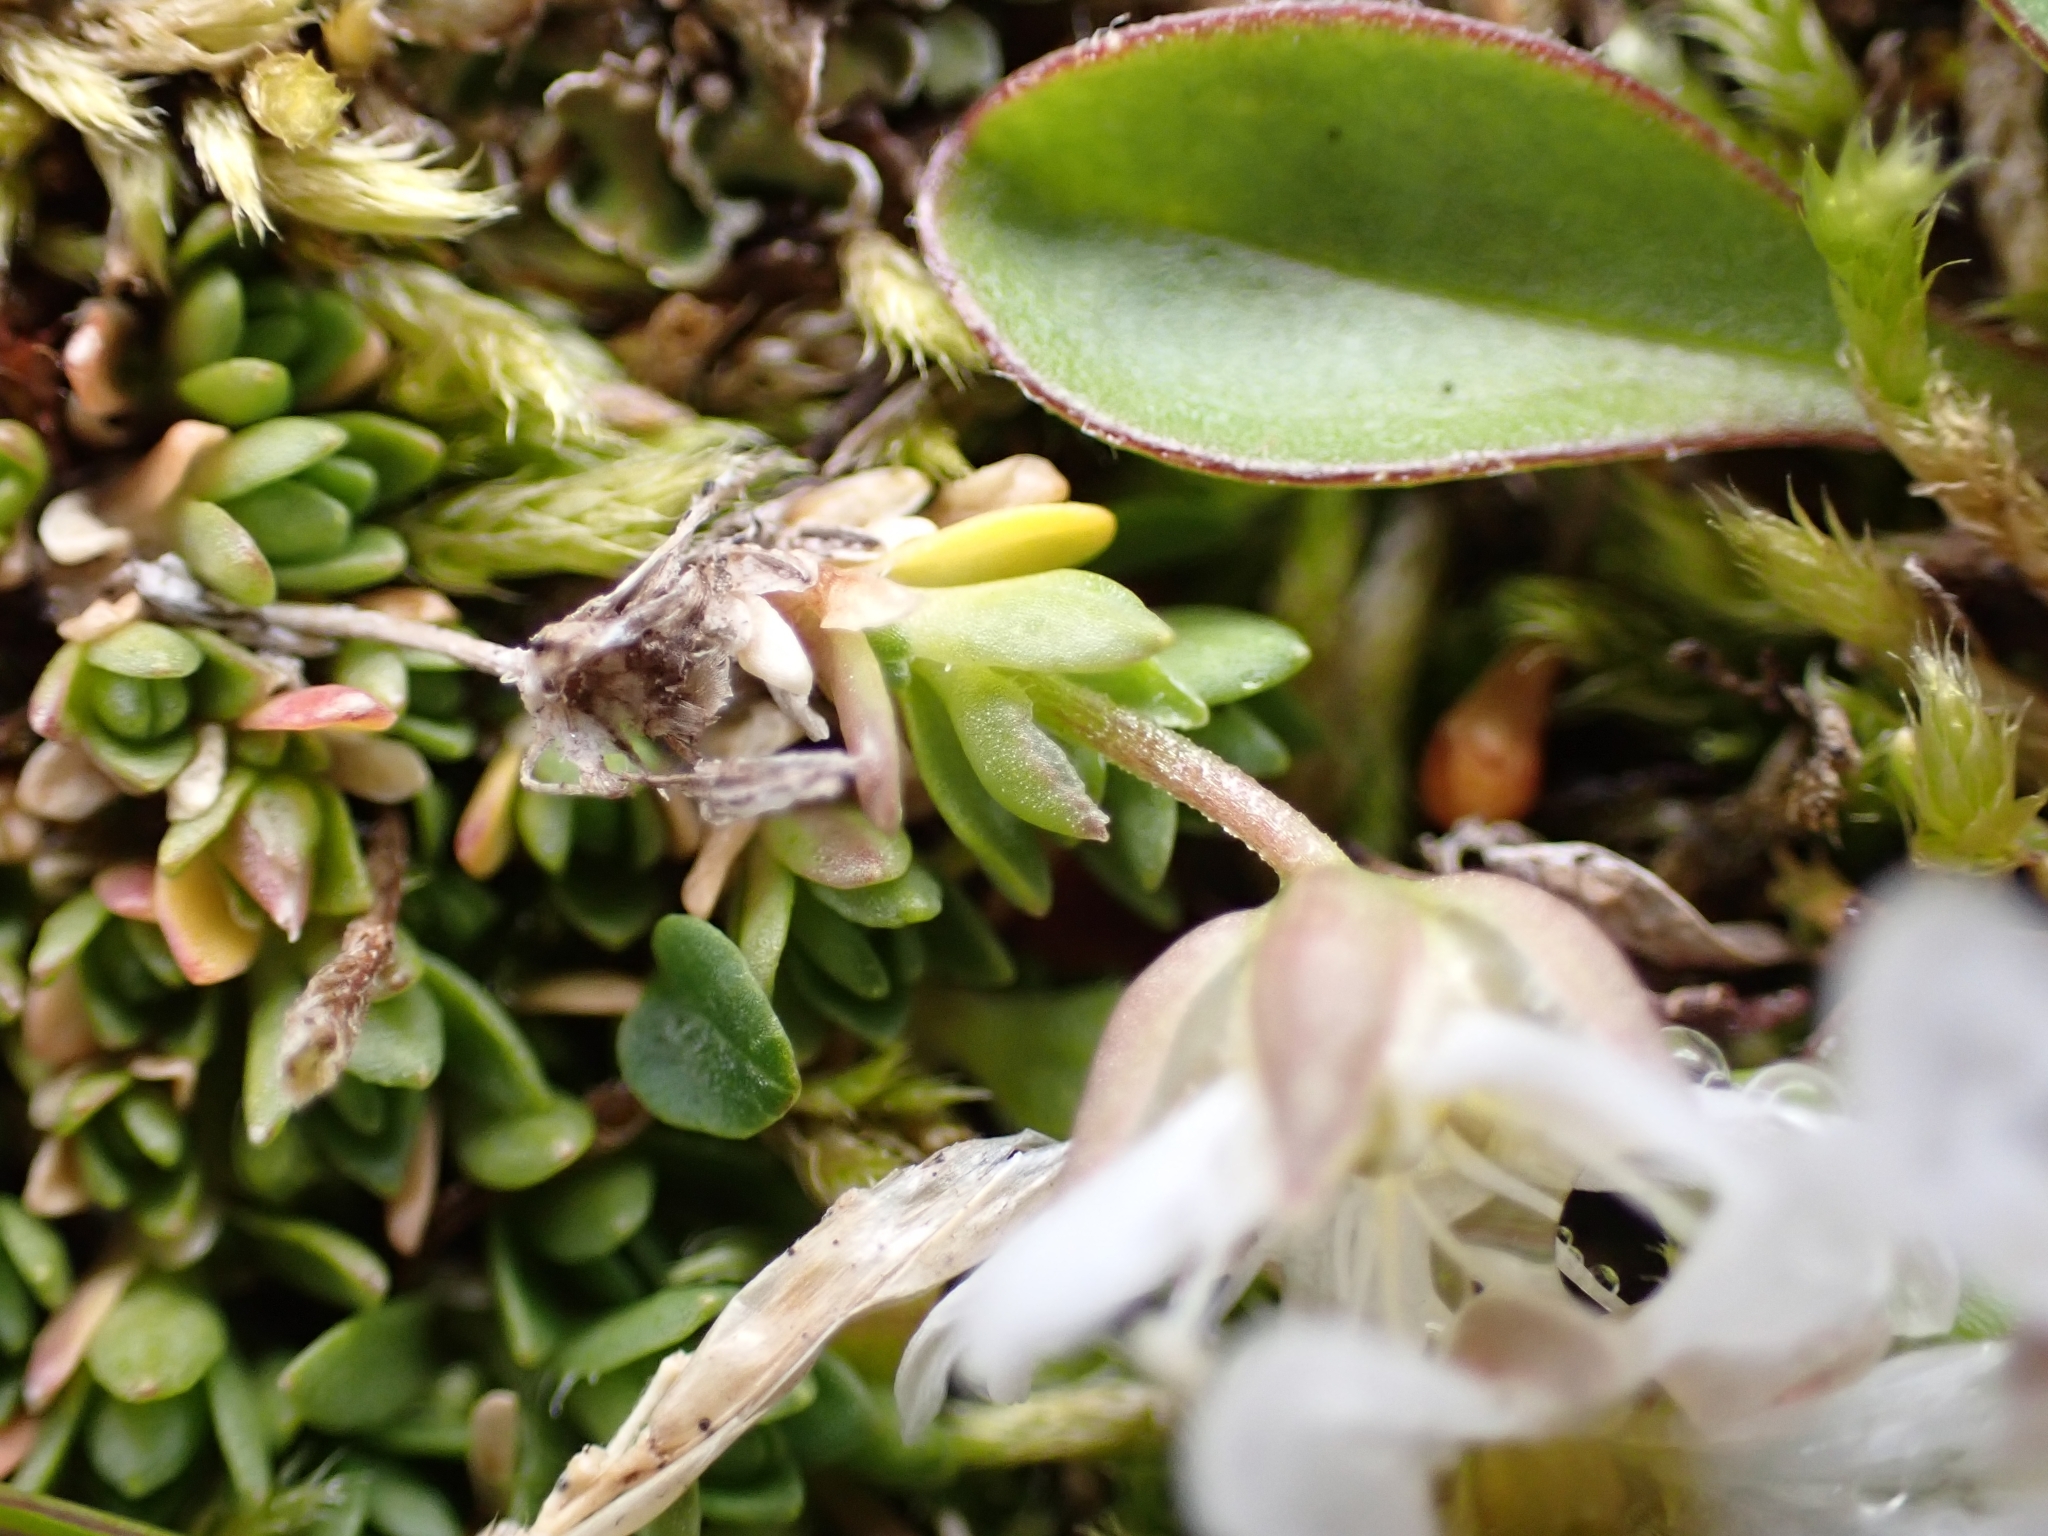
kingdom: Plantae
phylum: Tracheophyta
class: Magnoliopsida
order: Caryophyllales
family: Caryophyllaceae
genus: Arenaria
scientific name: Arenaria ciliata
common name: Fringed sandwort
